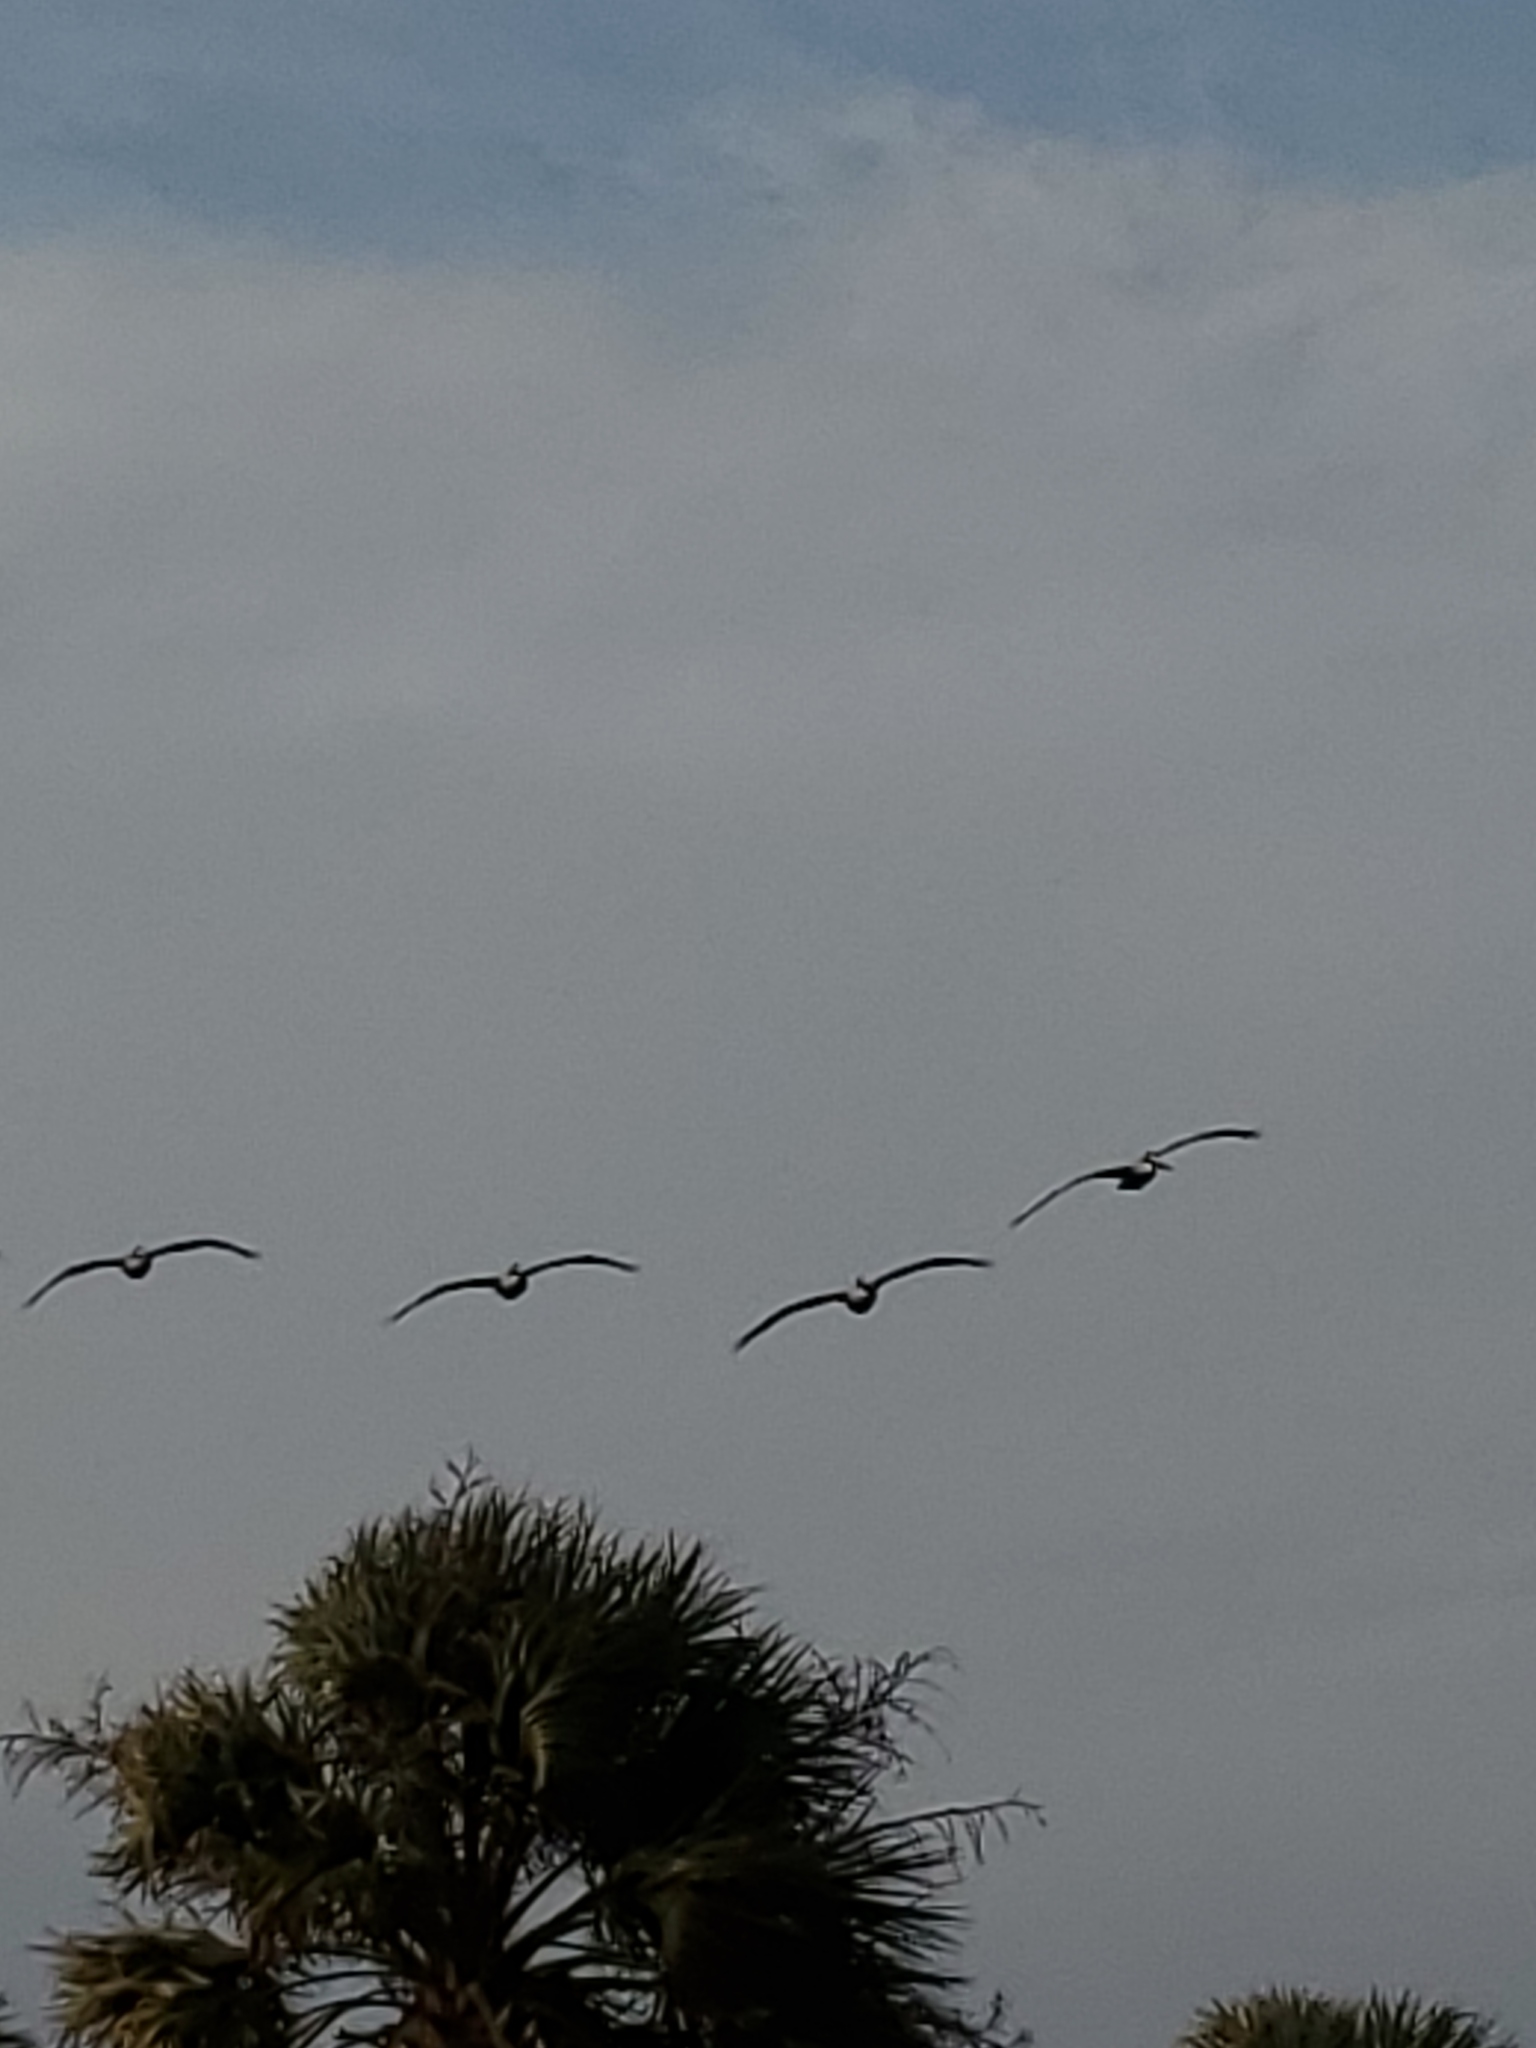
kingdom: Animalia
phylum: Chordata
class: Aves
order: Pelecaniformes
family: Pelecanidae
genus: Pelecanus
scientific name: Pelecanus occidentalis
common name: Brown pelican
